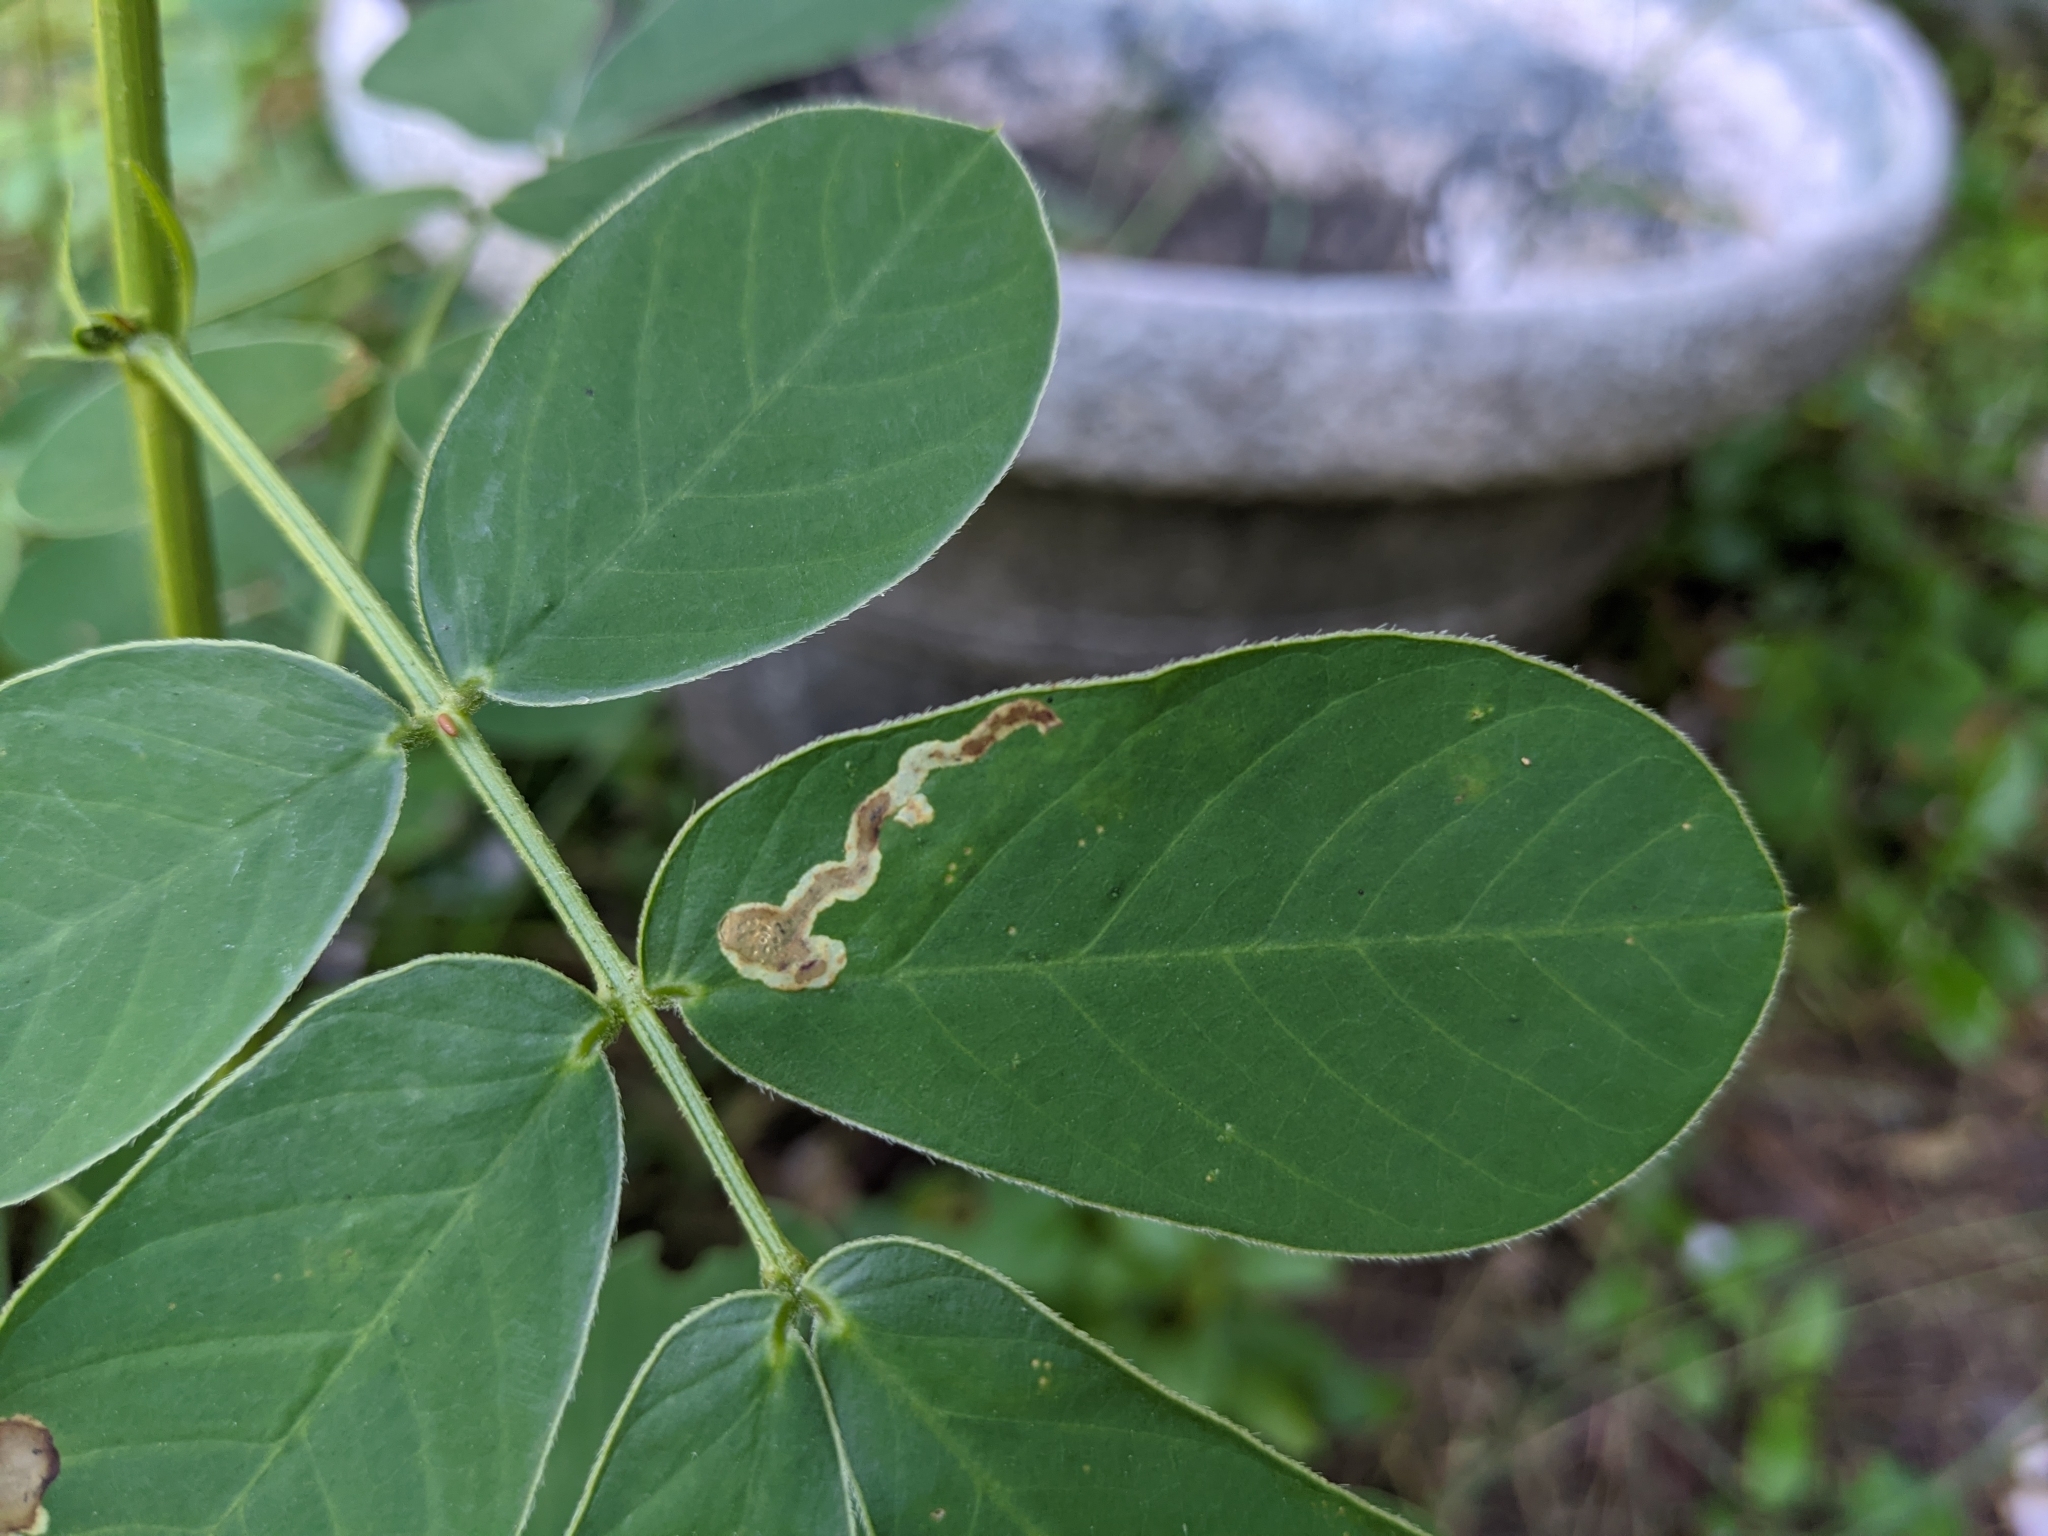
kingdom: Animalia
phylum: Arthropoda
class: Insecta
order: Diptera
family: Agromyzidae
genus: Calycomyza
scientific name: Calycomyza malvae
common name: Mallow leaf miner
